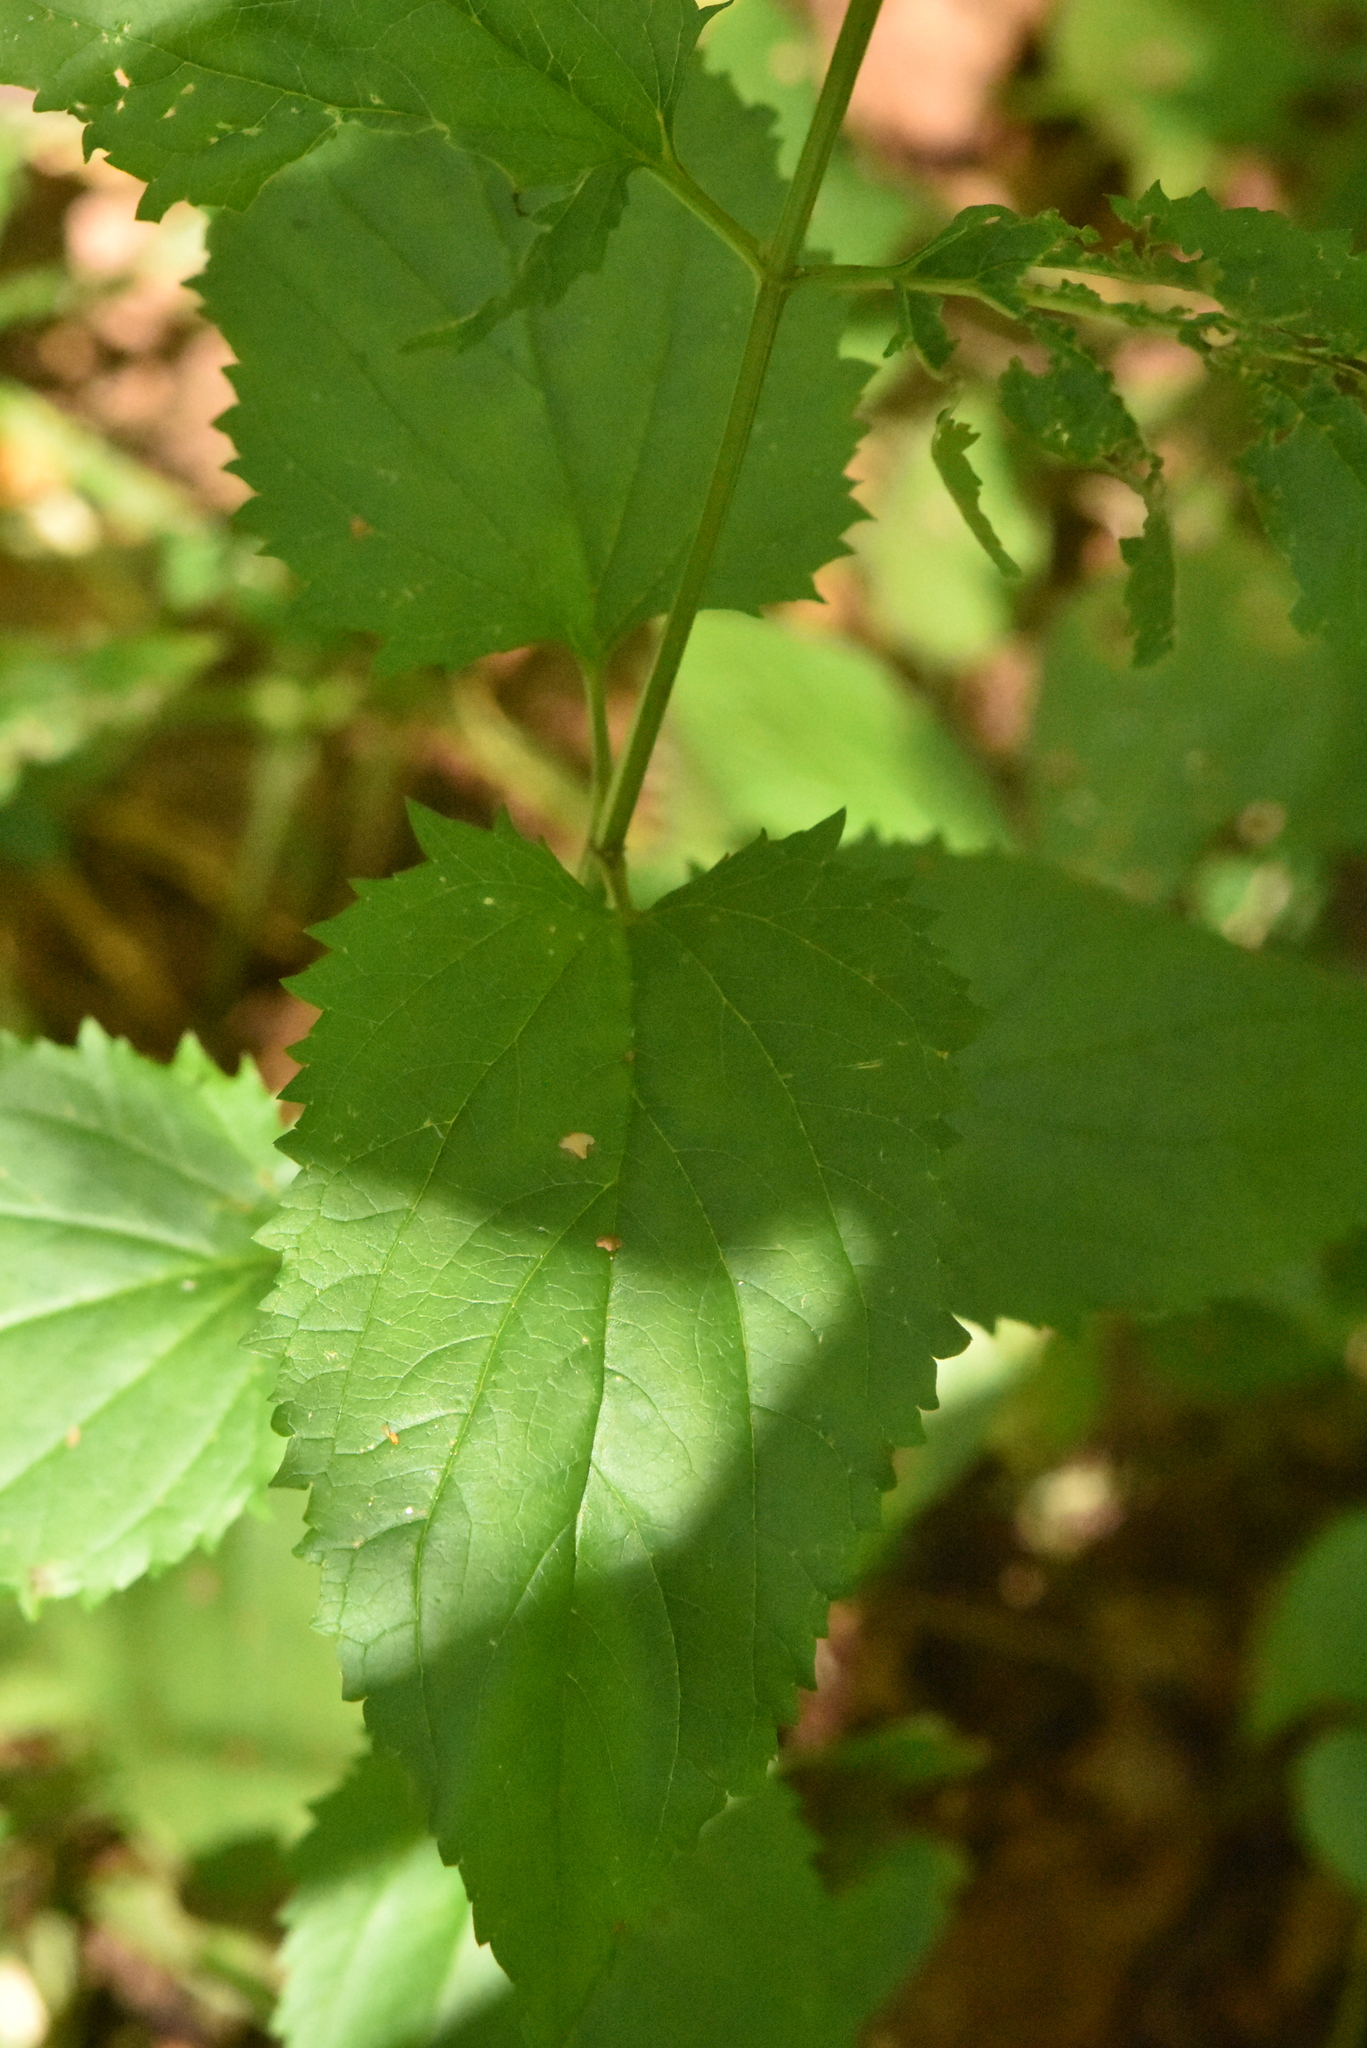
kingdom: Plantae
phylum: Tracheophyta
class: Magnoliopsida
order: Lamiales
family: Scrophulariaceae
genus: Scrophularia
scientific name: Scrophularia nodosa
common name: Common figwort
